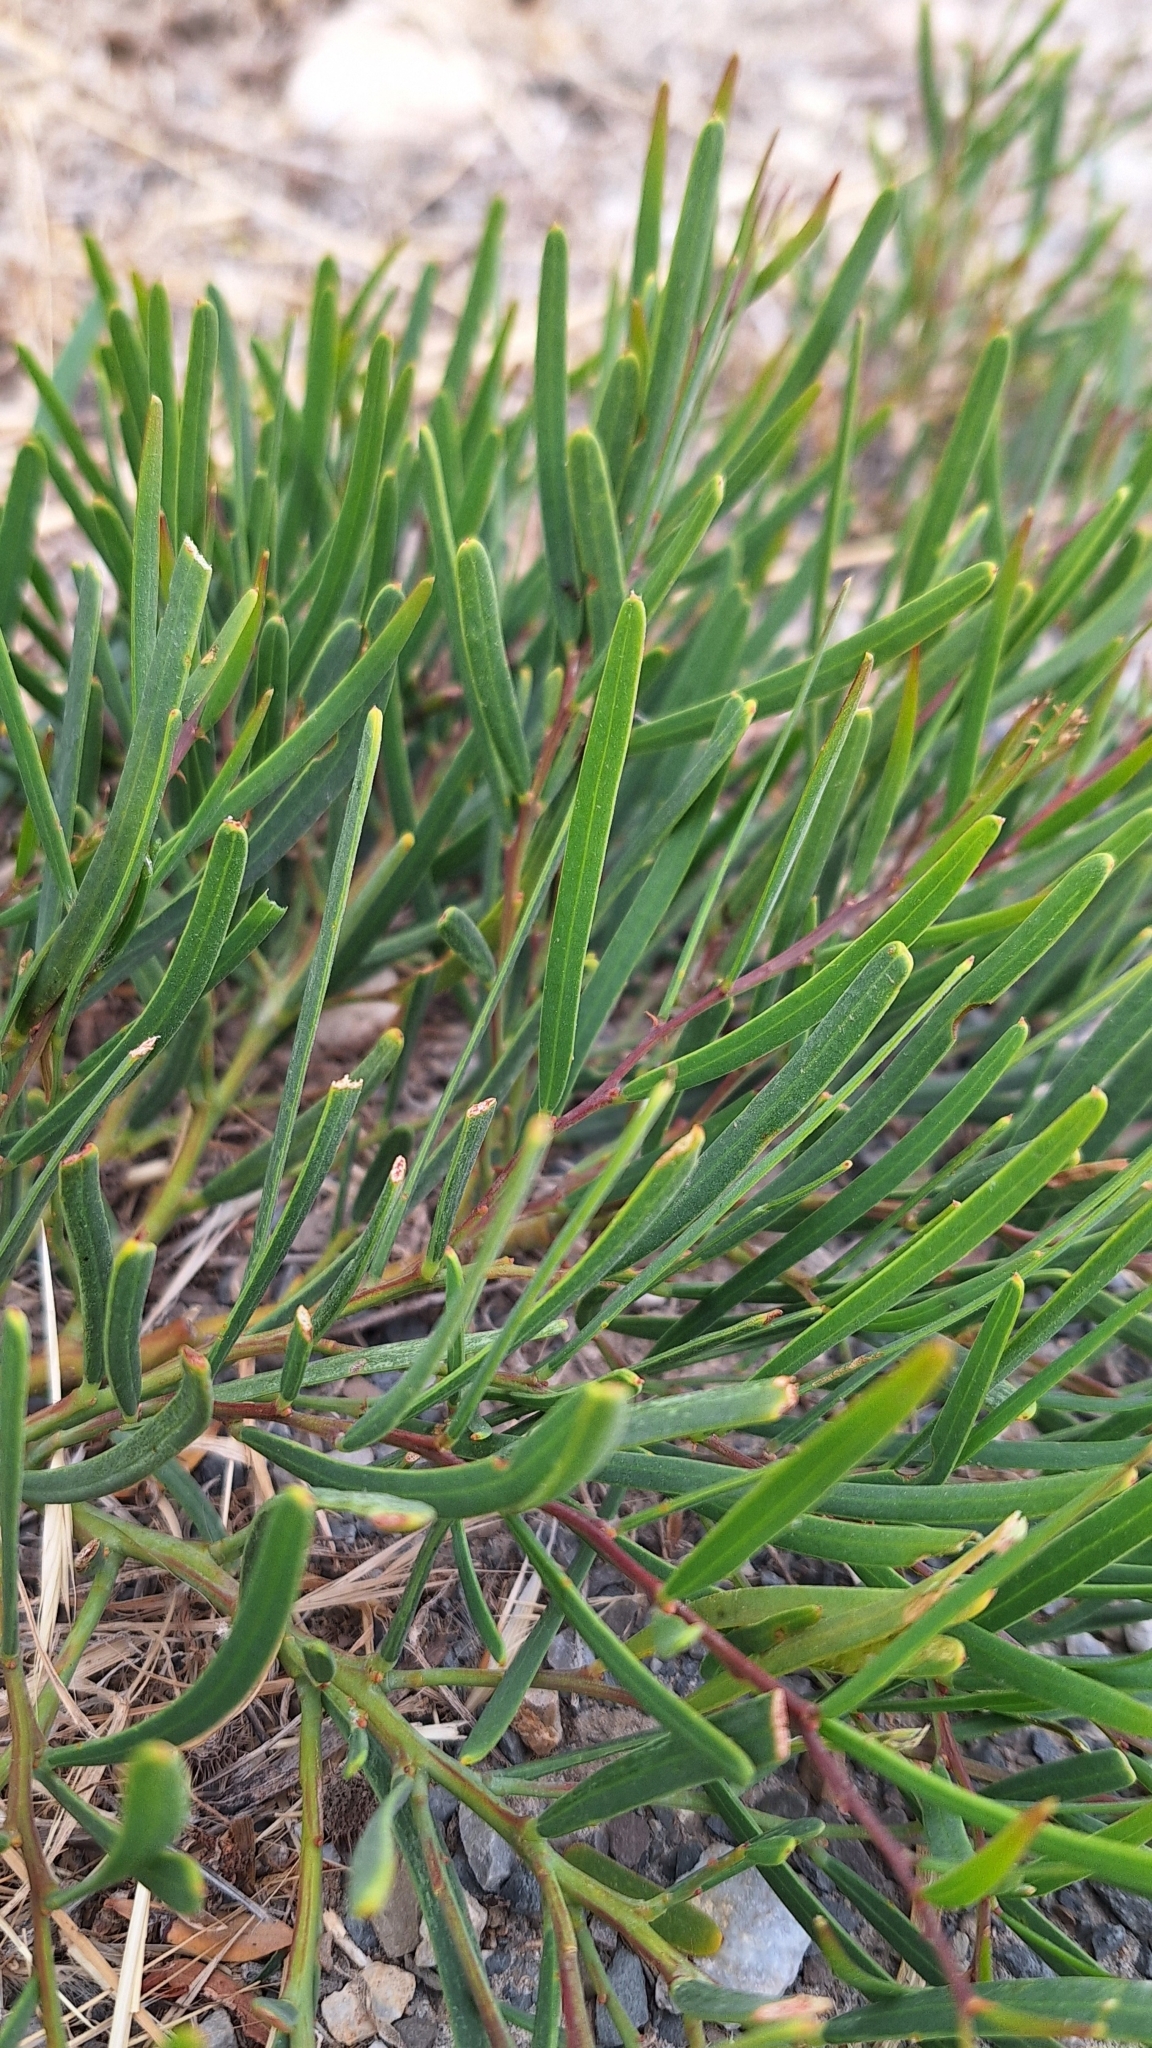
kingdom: Plantae
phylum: Tracheophyta
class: Magnoliopsida
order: Fabales
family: Fabaceae
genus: Acacia
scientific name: Acacia cupularis
